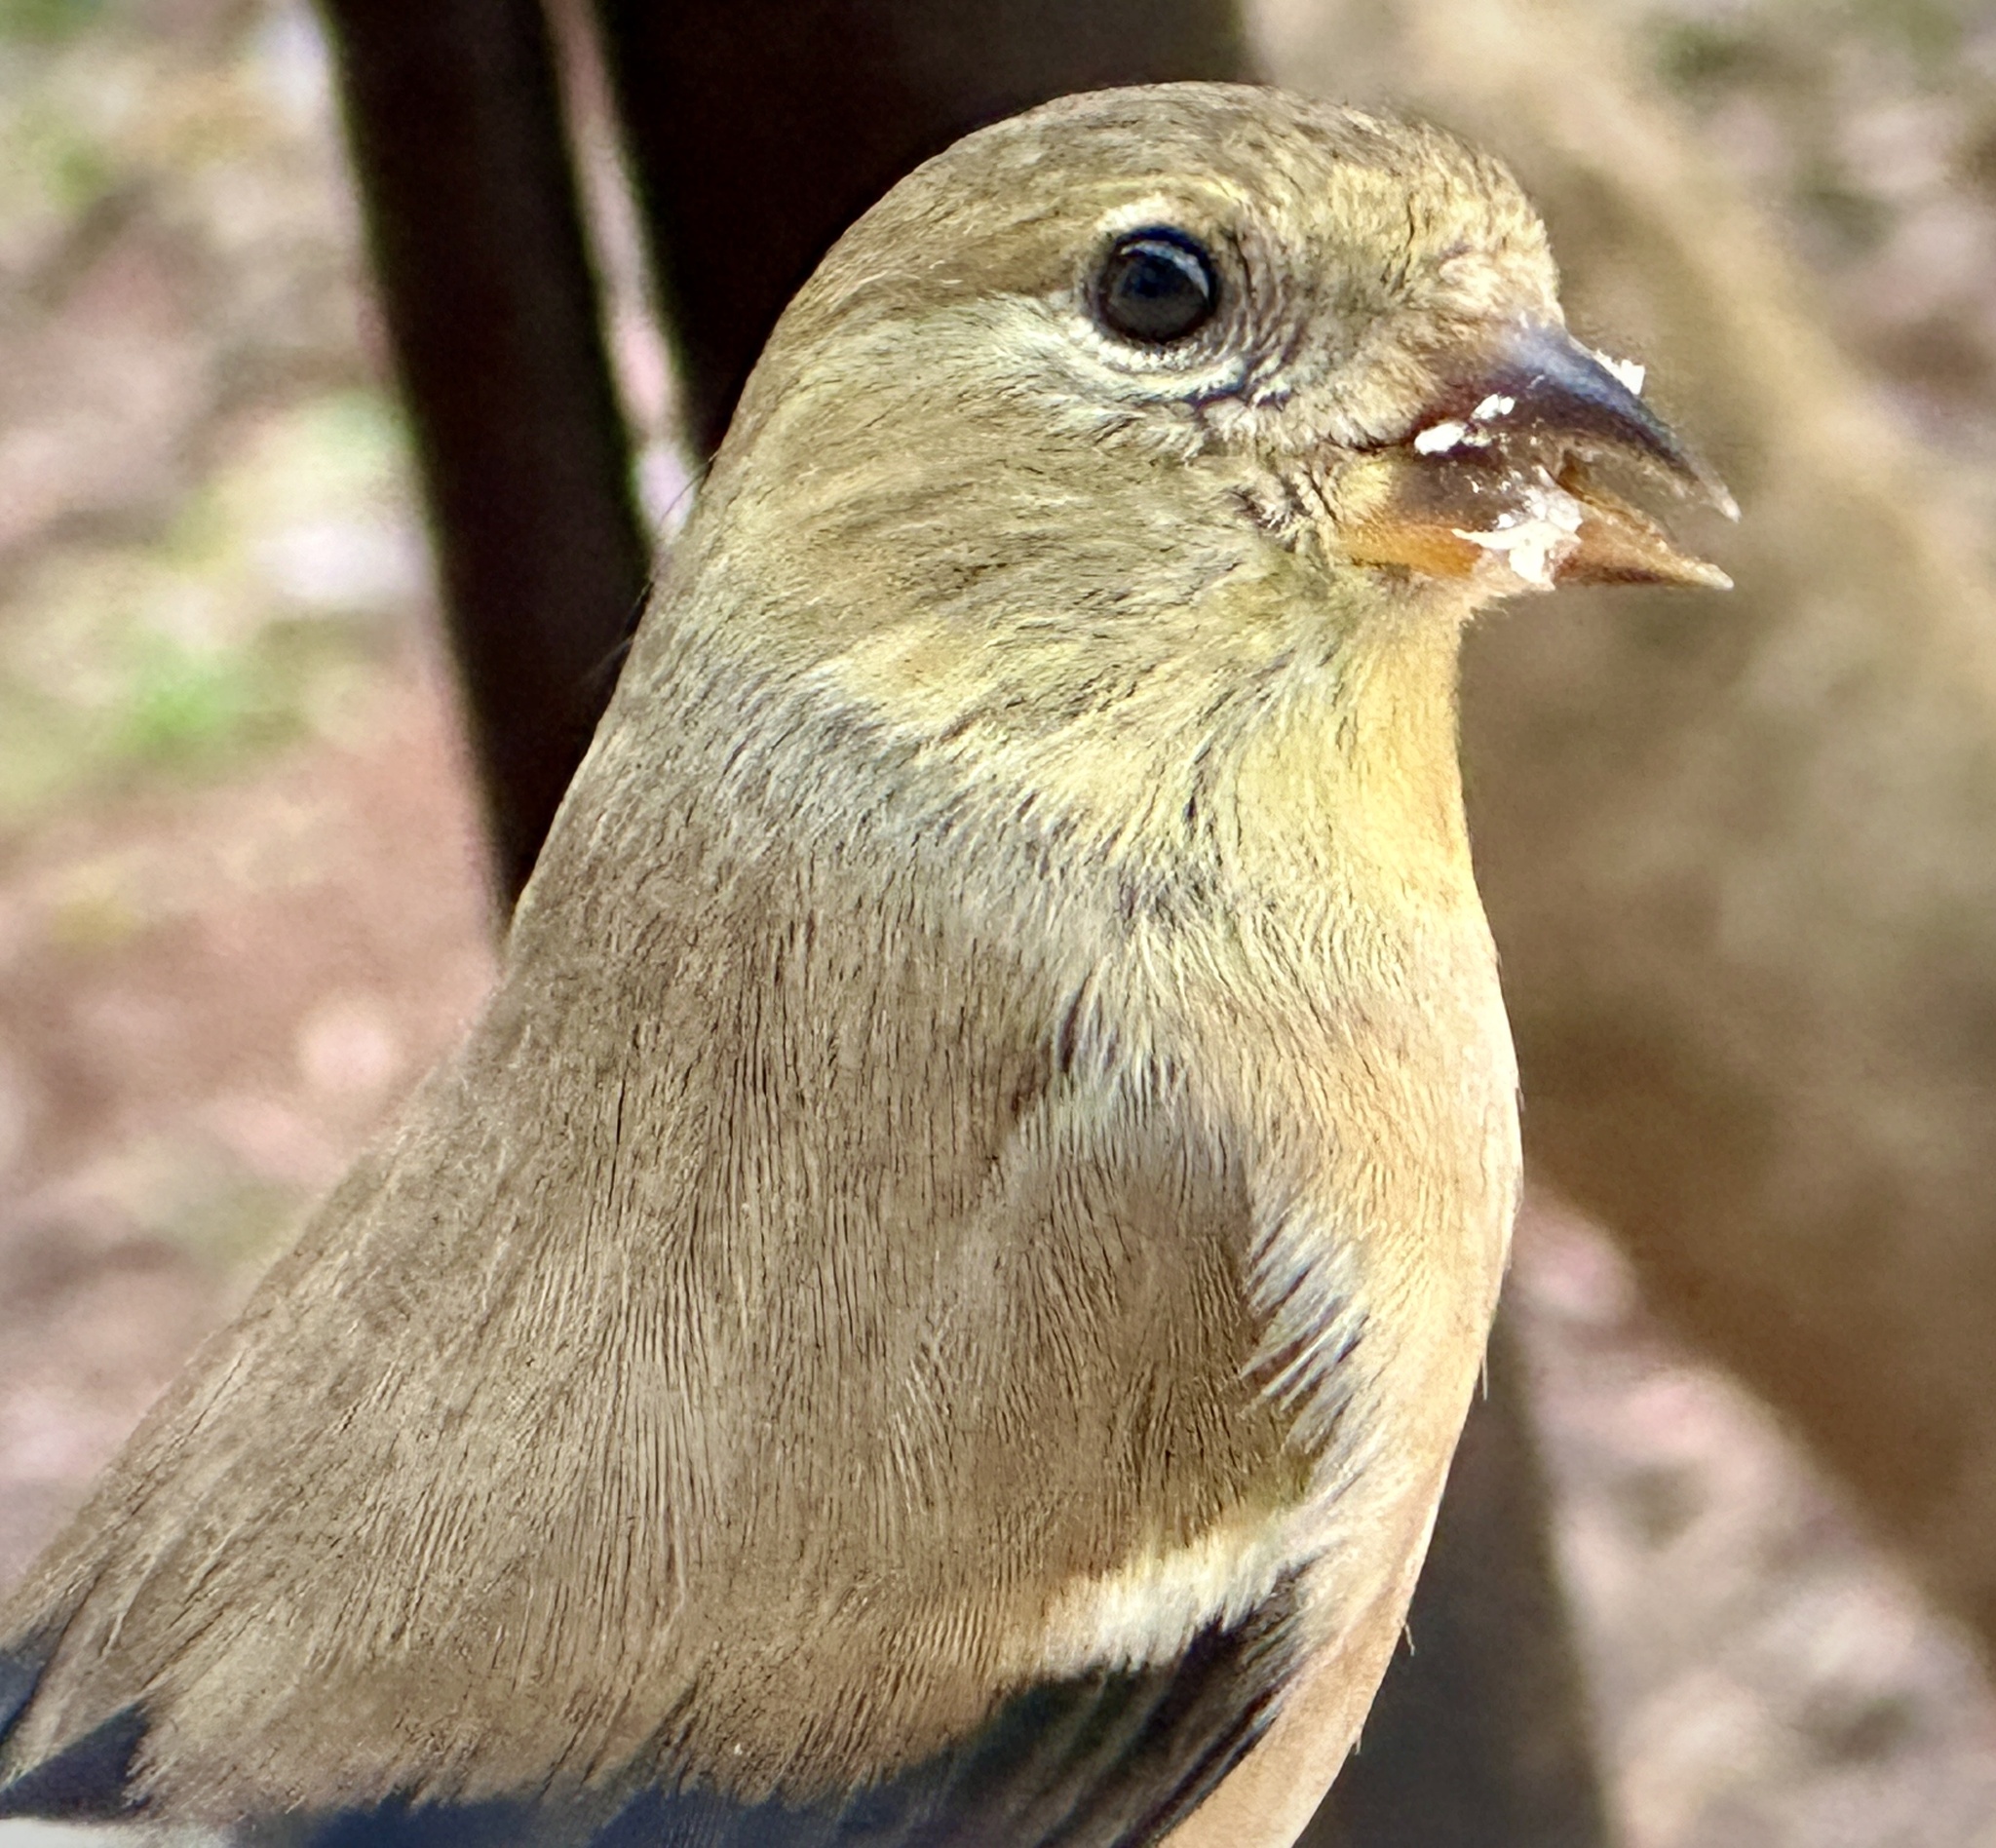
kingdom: Animalia
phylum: Chordata
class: Aves
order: Passeriformes
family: Fringillidae
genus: Spinus
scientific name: Spinus tristis
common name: American goldfinch
